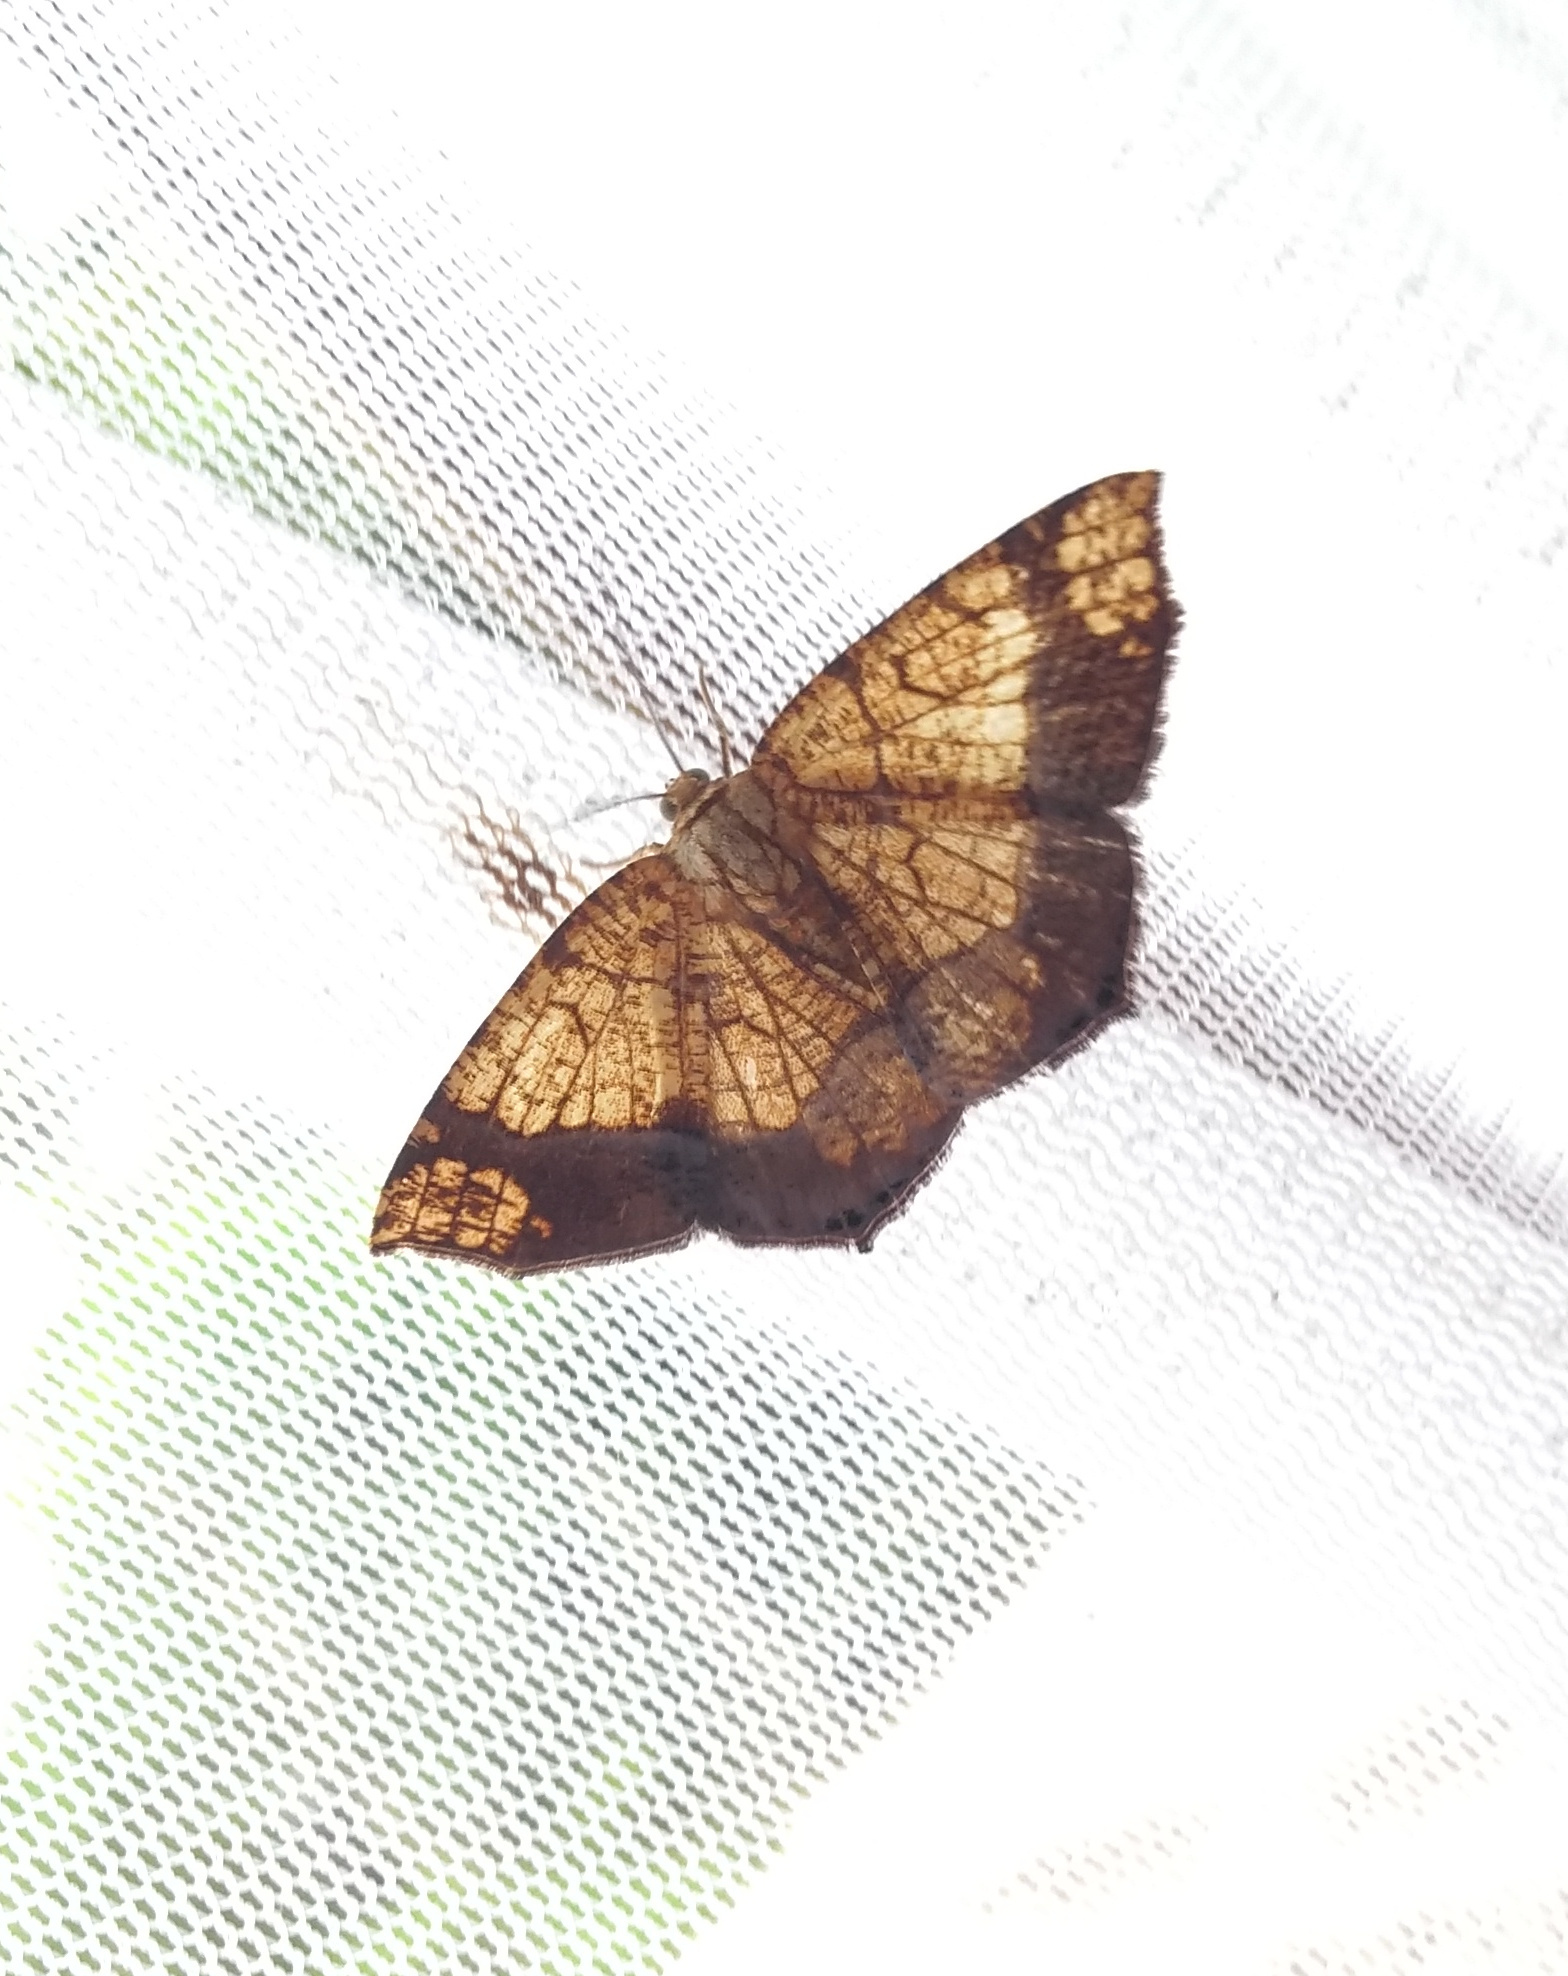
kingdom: Animalia
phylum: Arthropoda
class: Insecta
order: Lepidoptera
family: Geometridae
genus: Nematocampa
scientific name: Nematocampa reticulata
